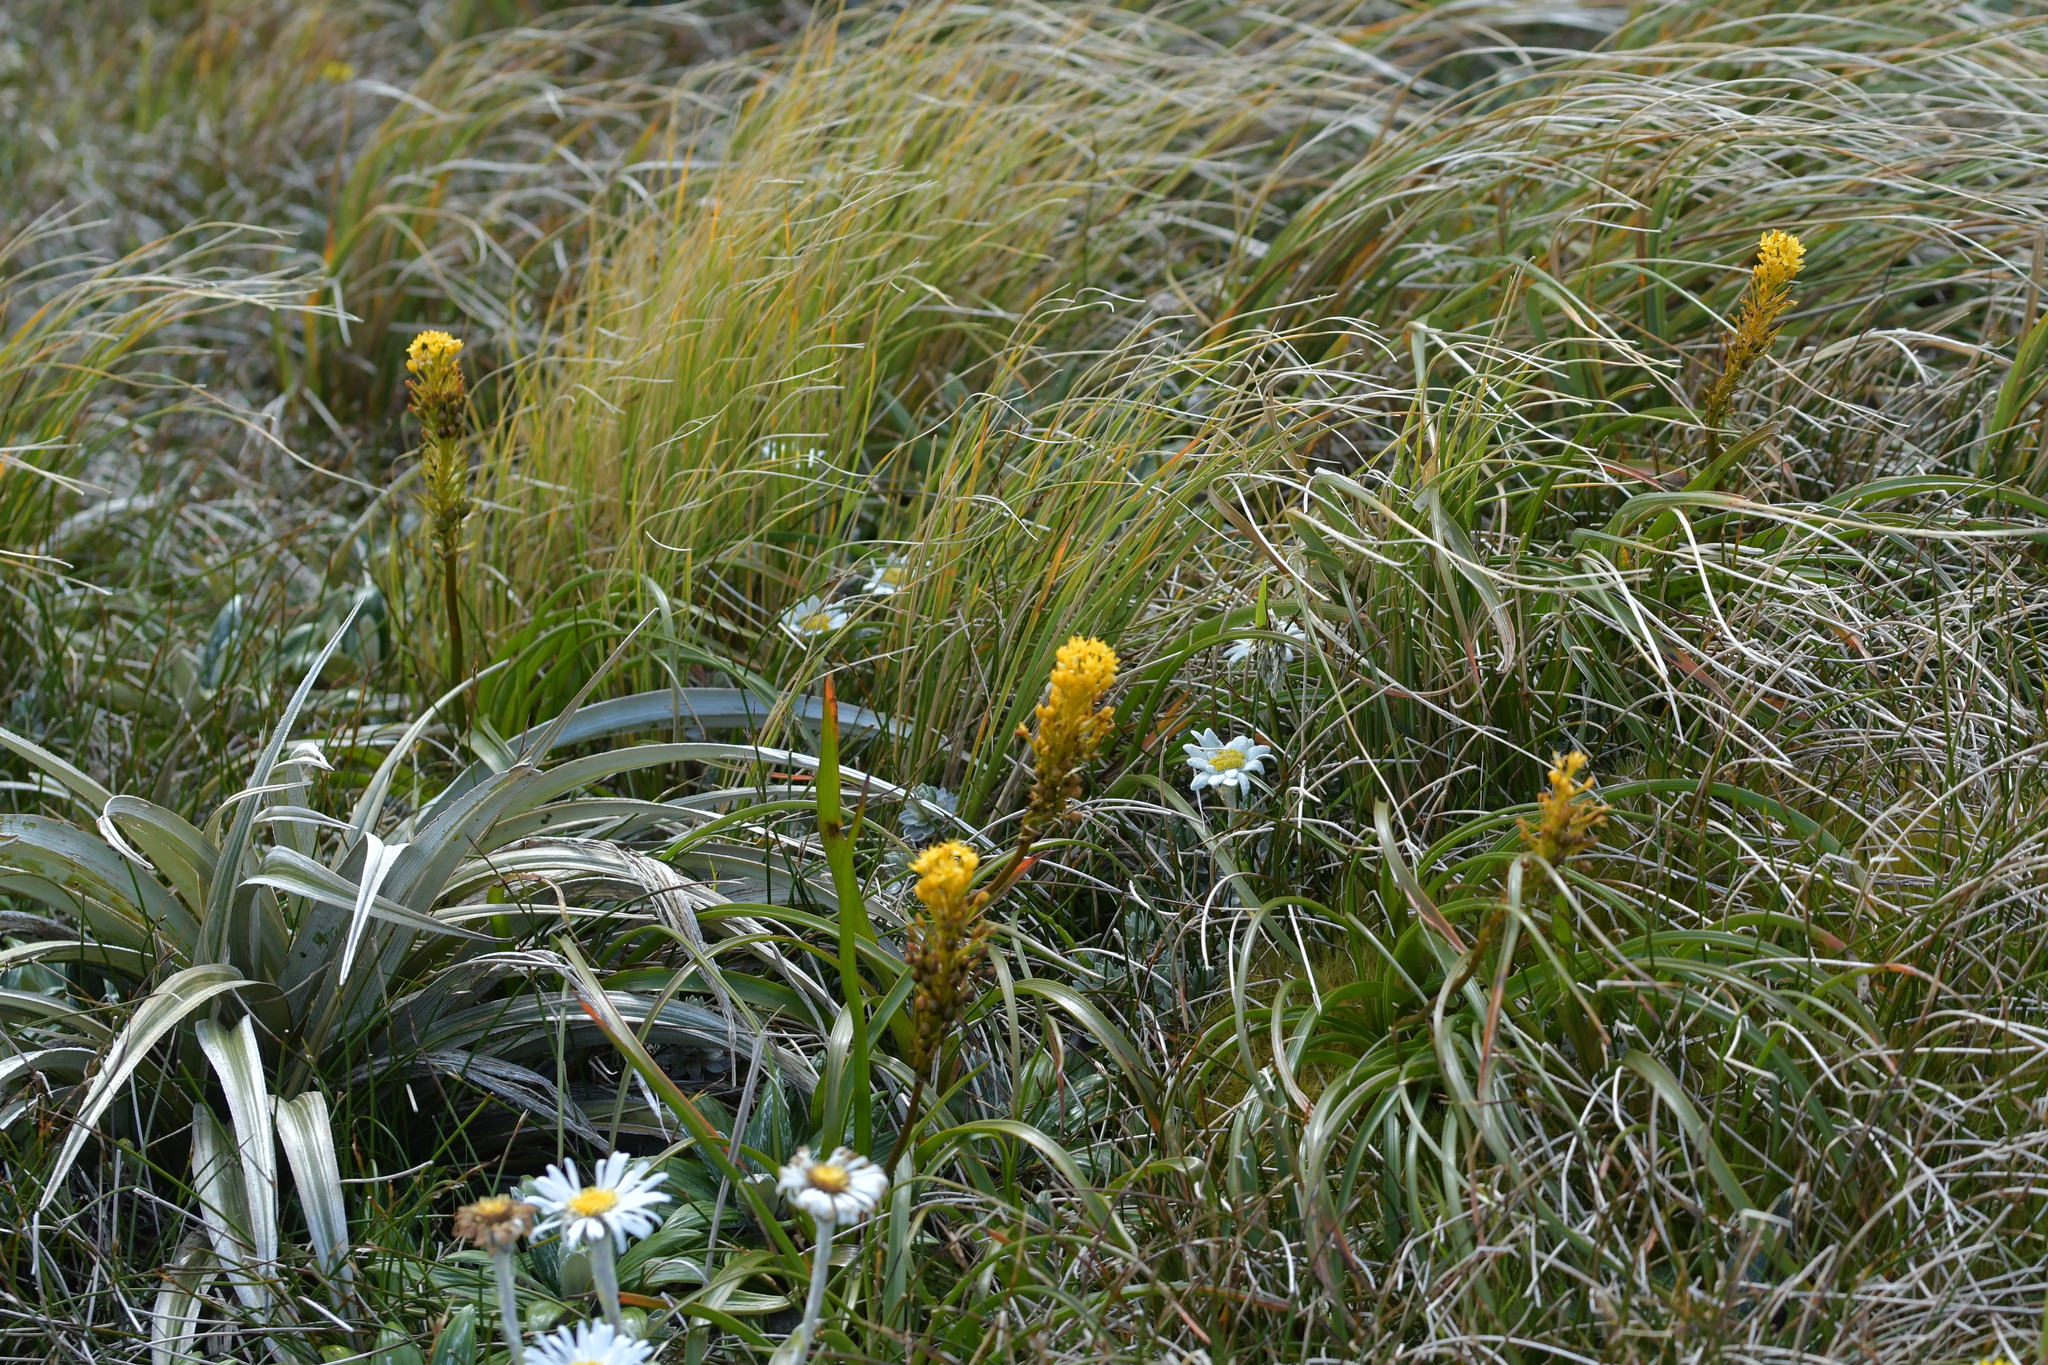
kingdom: Plantae
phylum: Tracheophyta
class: Liliopsida
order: Asparagales
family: Asphodelaceae
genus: Bulbinella
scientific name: Bulbinella hookeri
